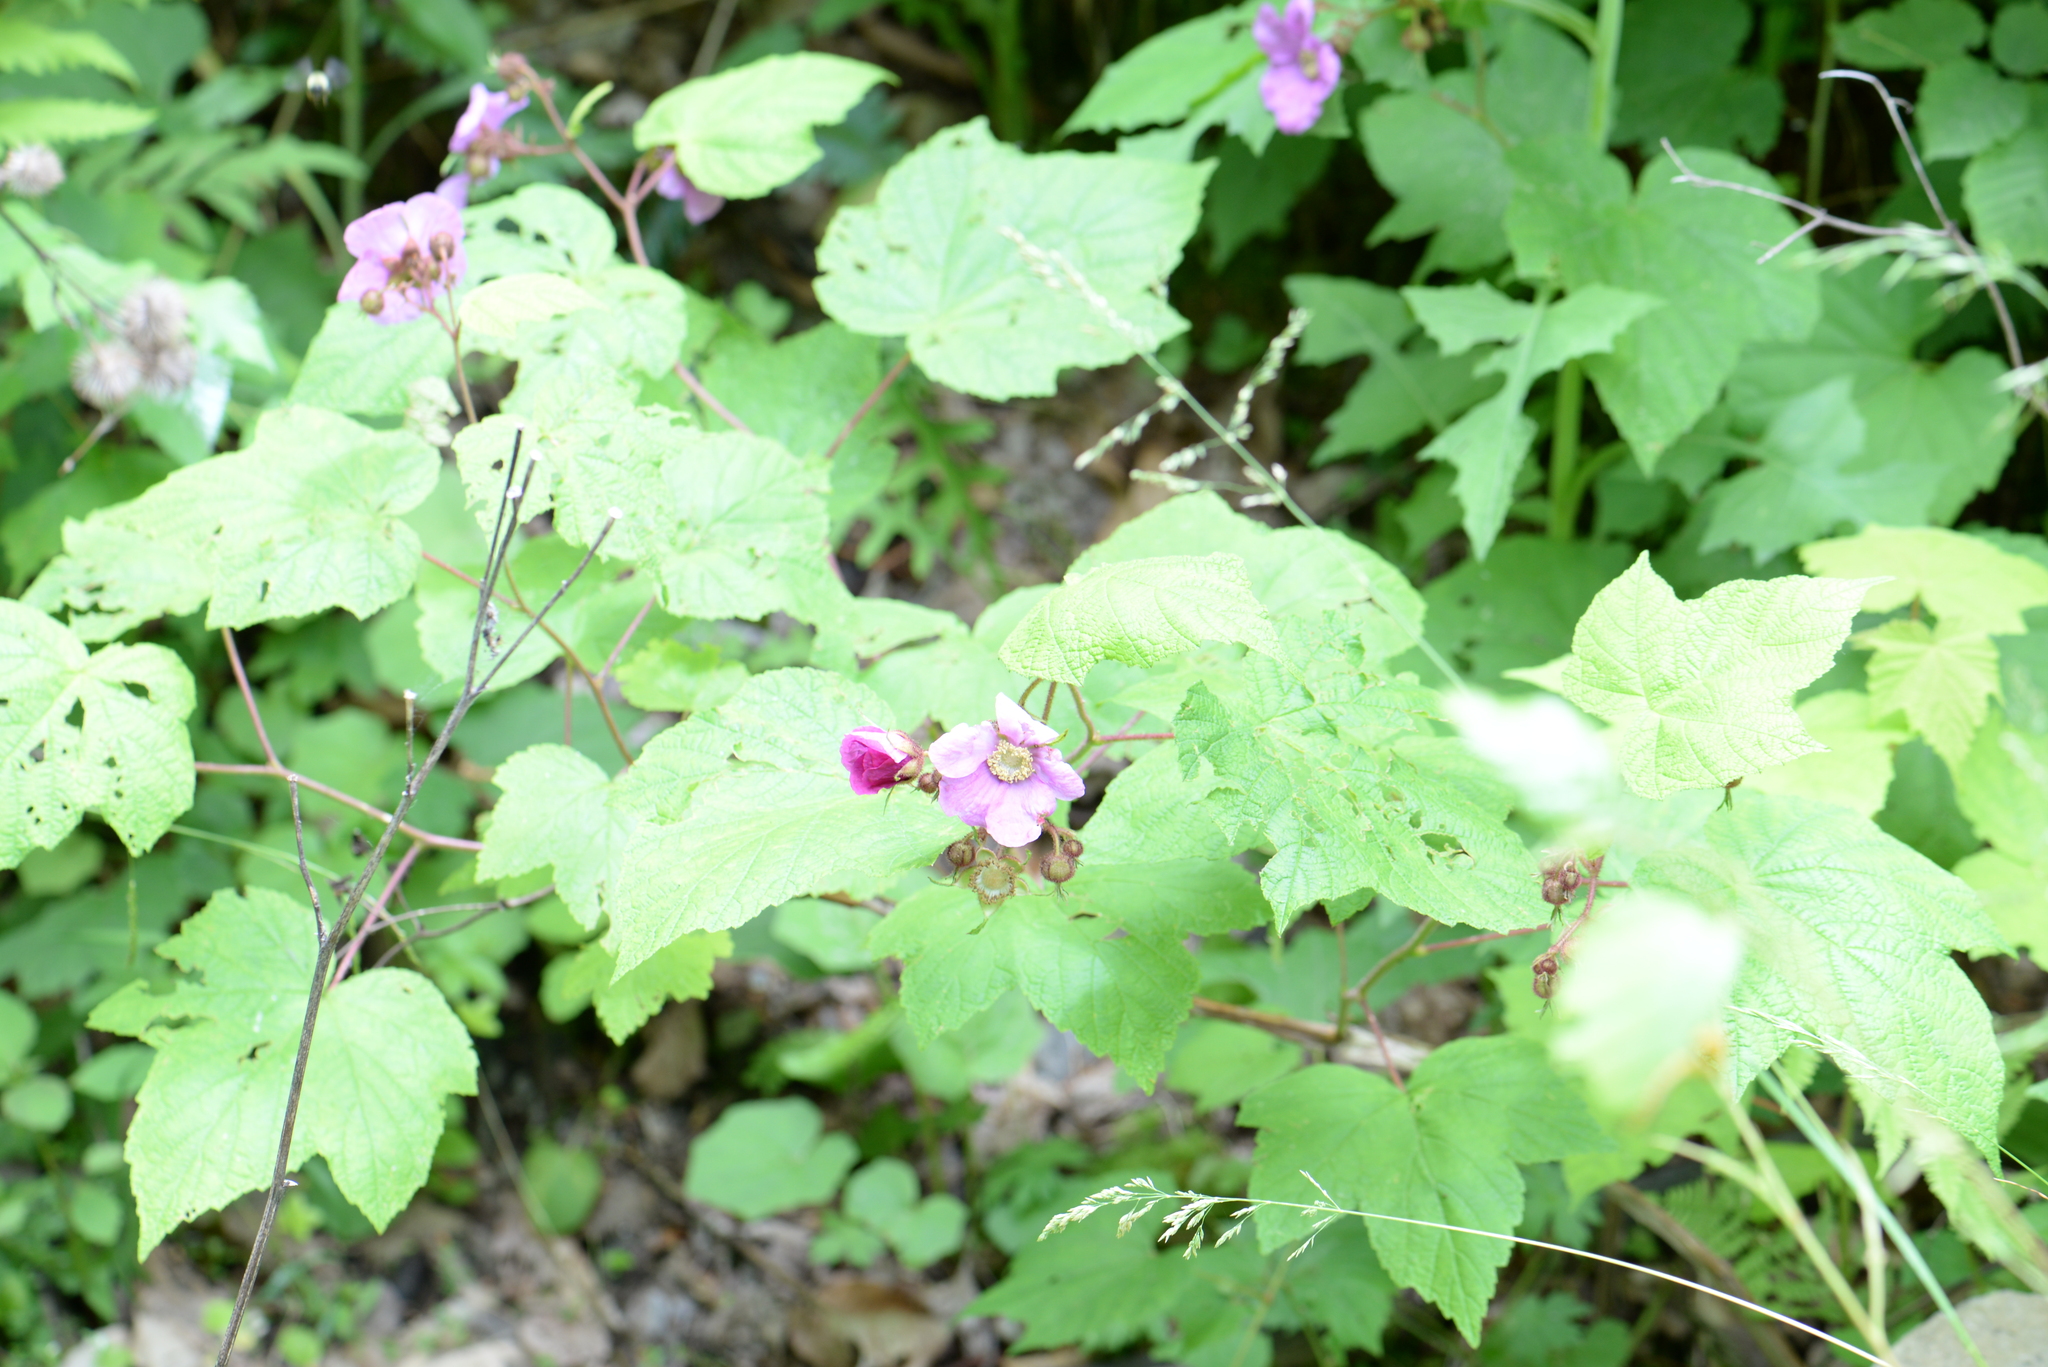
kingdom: Plantae
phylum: Tracheophyta
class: Magnoliopsida
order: Rosales
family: Rosaceae
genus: Rubus
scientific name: Rubus odoratus
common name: Purple-flowered raspberry
